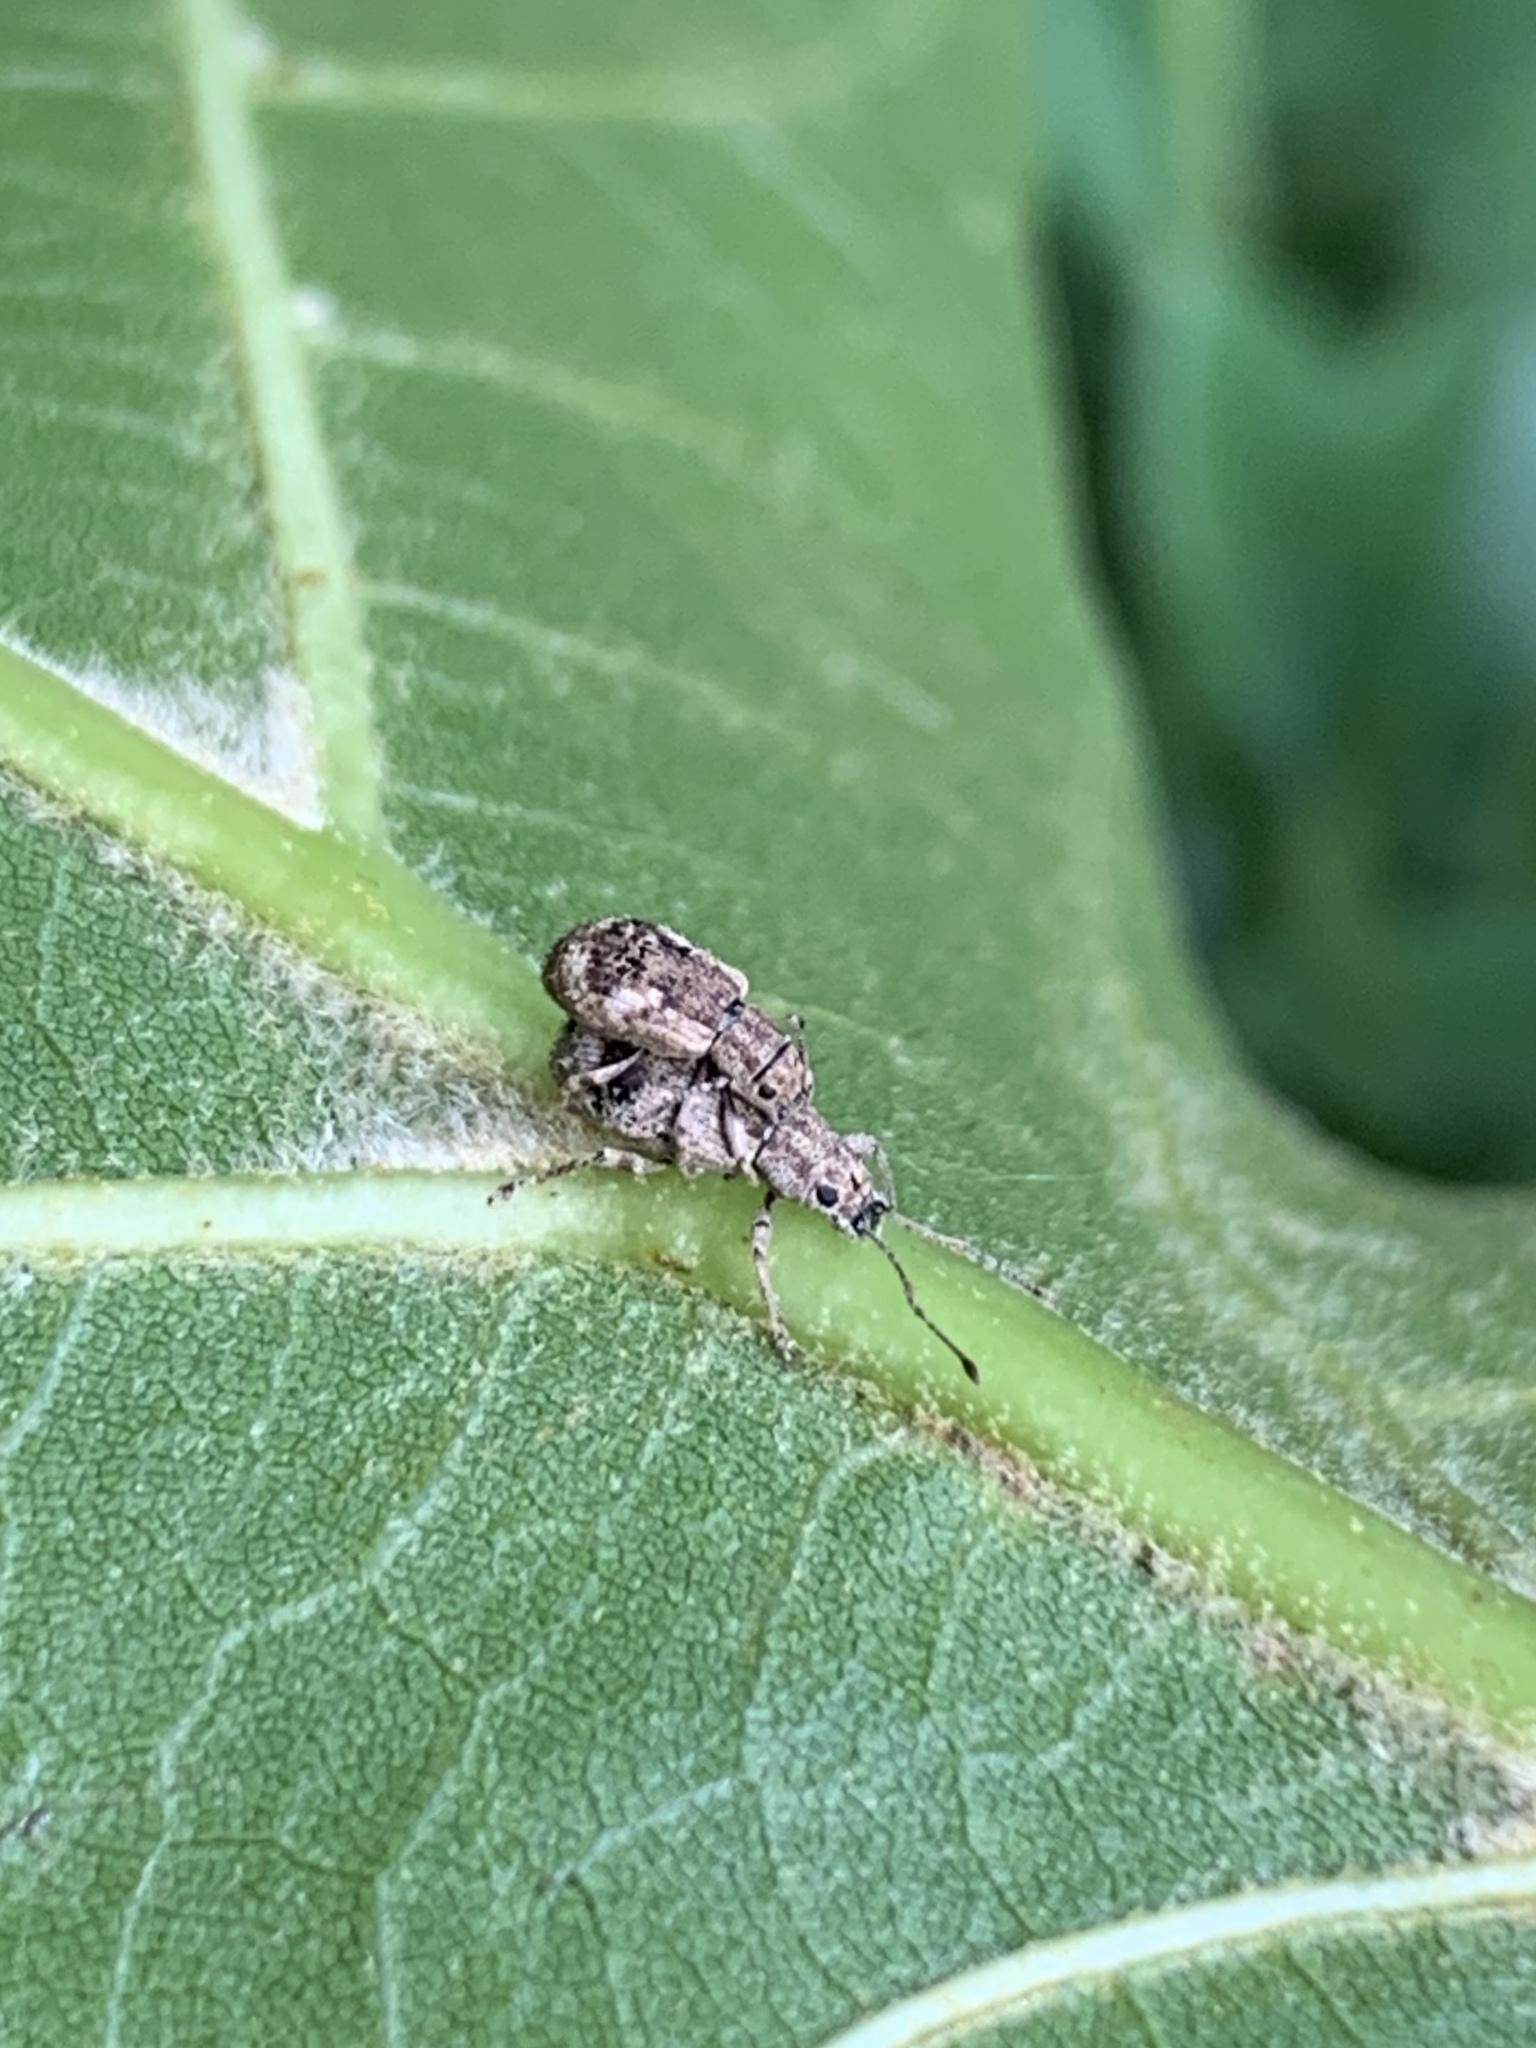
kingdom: Animalia
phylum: Arthropoda
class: Insecta
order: Coleoptera
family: Curculionidae
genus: Pseudoedophrys
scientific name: Pseudoedophrys hilleri
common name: Weevil
